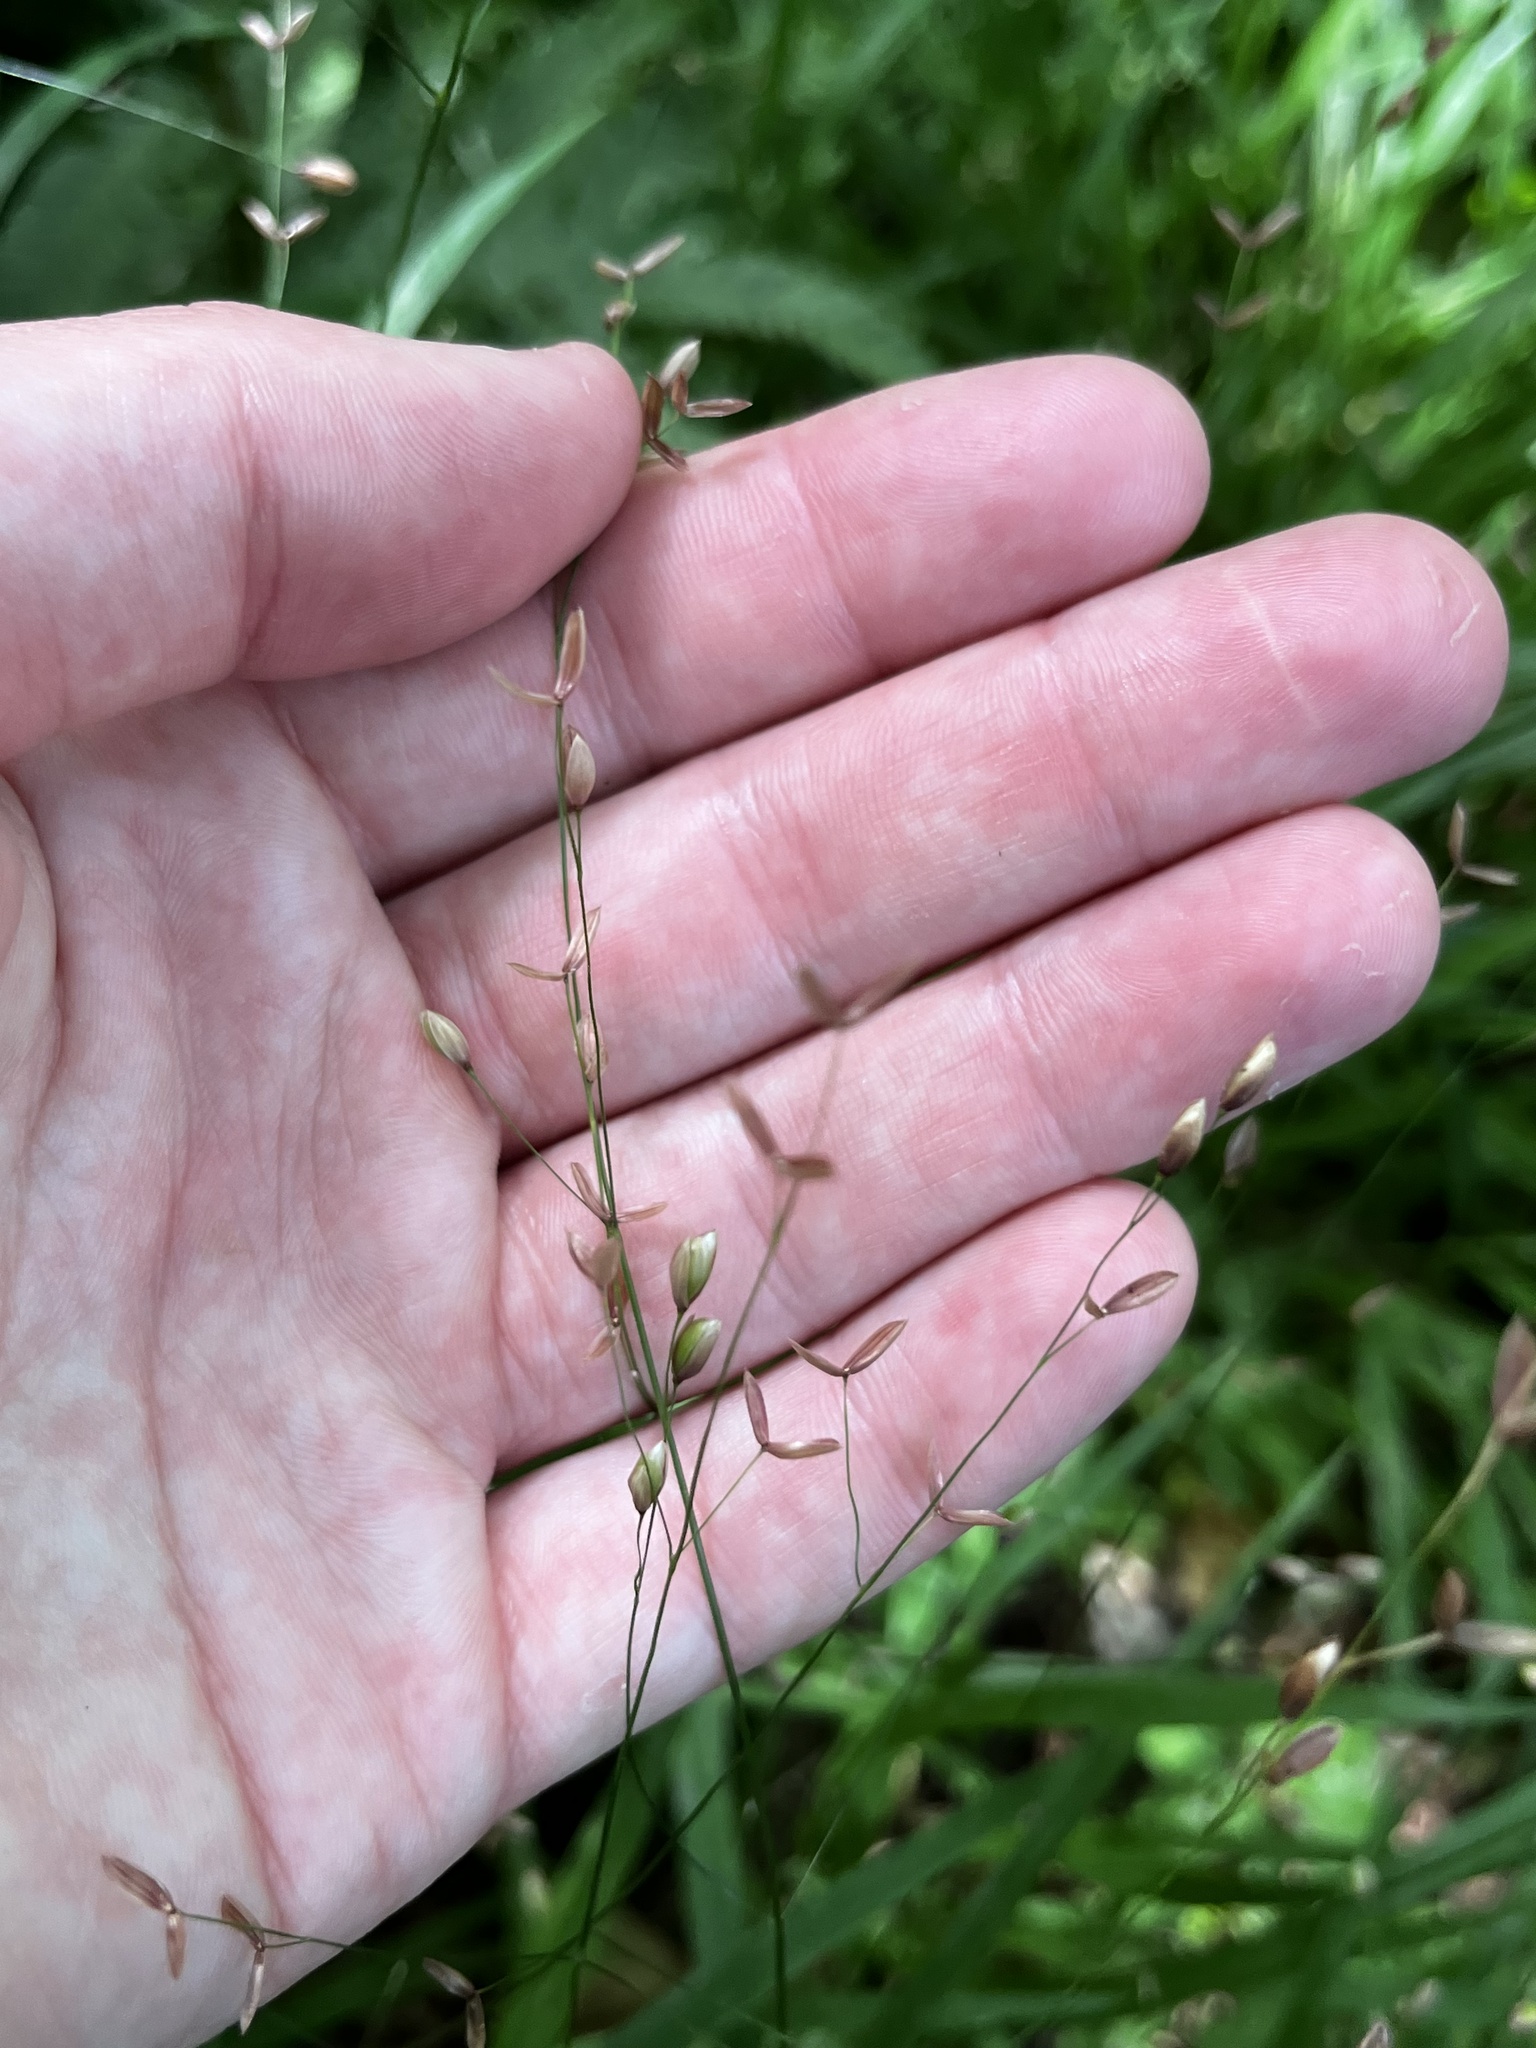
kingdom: Plantae
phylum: Tracheophyta
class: Liliopsida
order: Poales
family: Poaceae
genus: Melica
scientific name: Melica uniflora
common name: Wood melick
